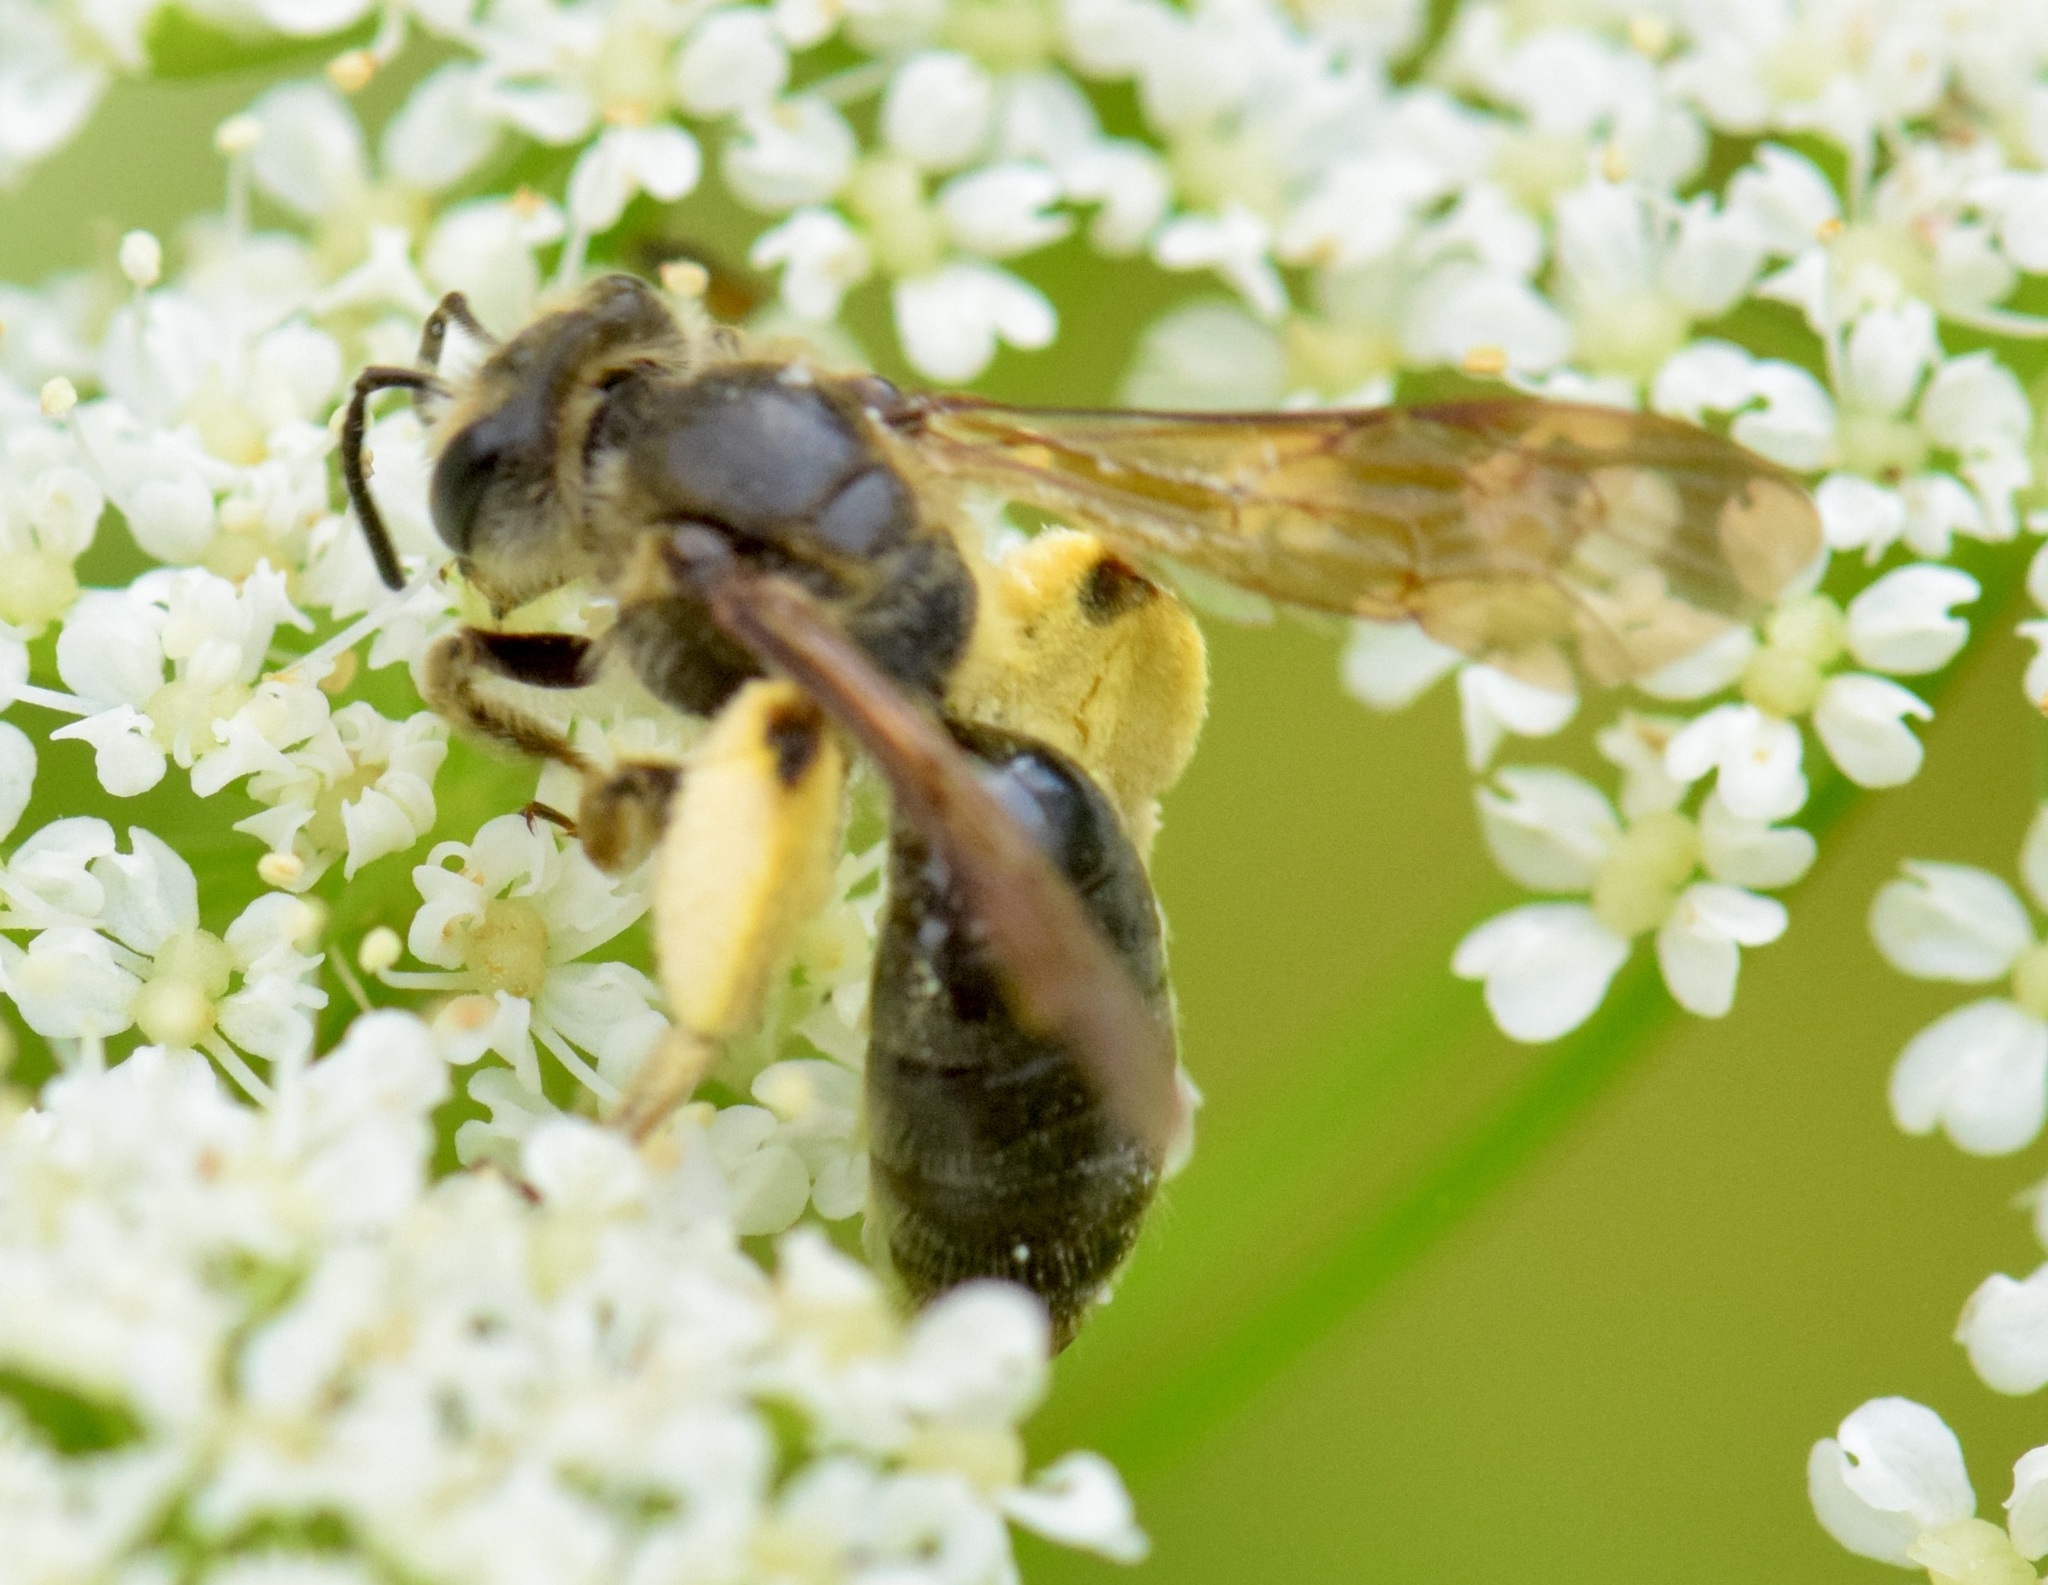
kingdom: Animalia
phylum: Arthropoda
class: Insecta
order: Hymenoptera
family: Andrenidae
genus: Andrena
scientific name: Andrena crataegi
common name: Hawthorn mining bee
